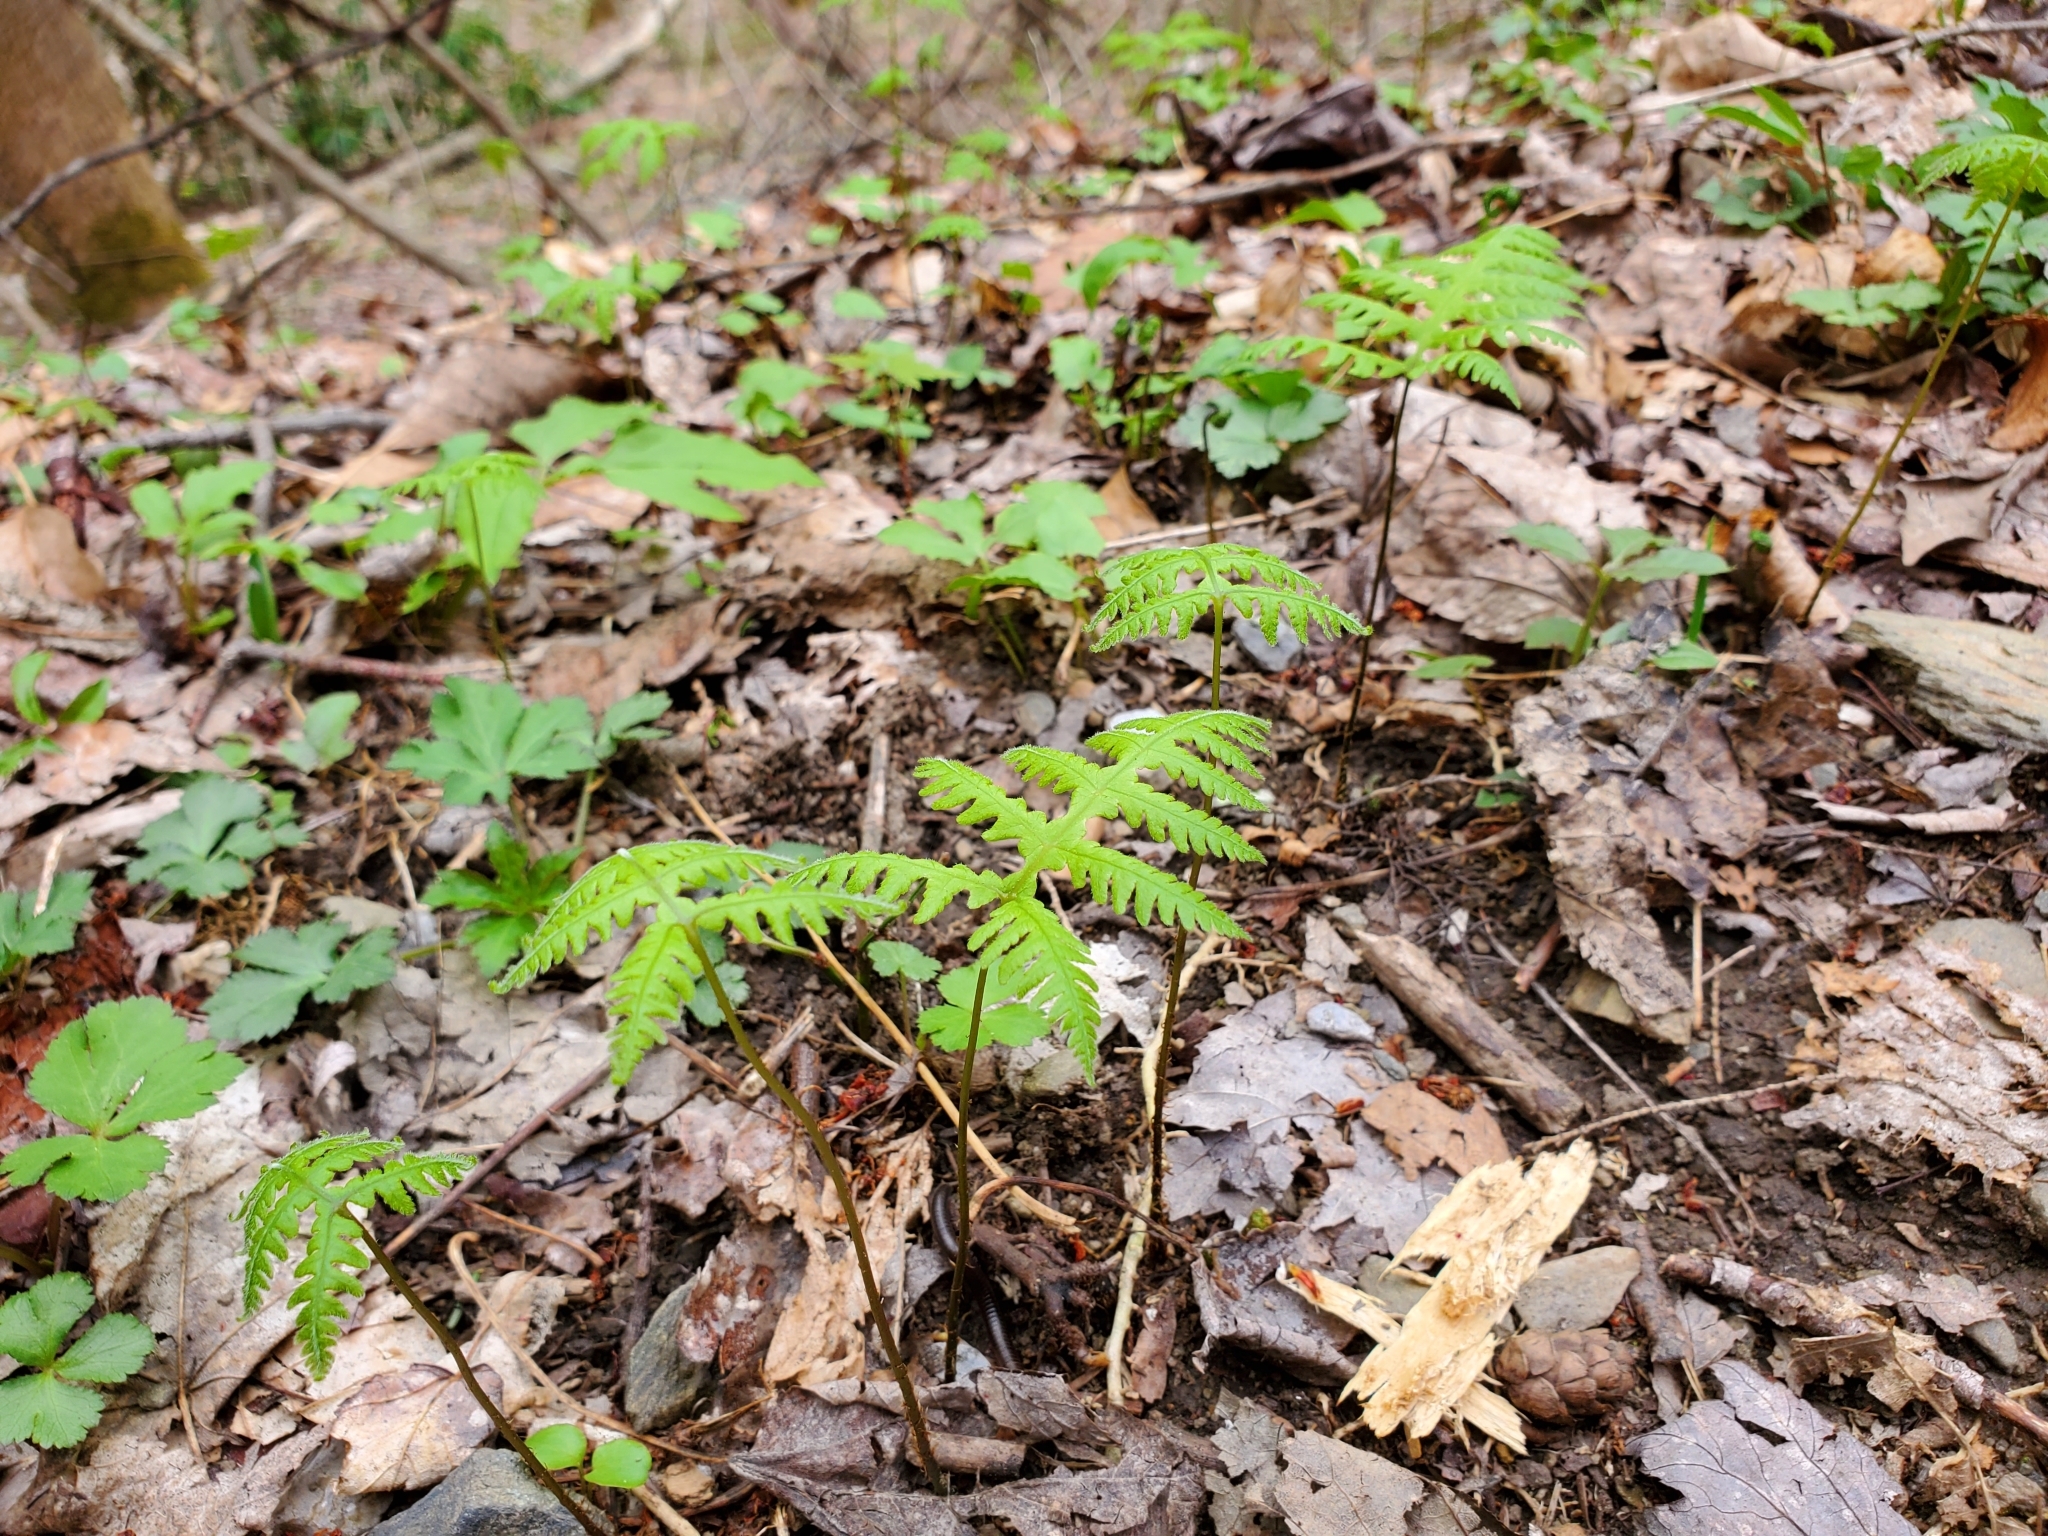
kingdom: Plantae
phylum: Tracheophyta
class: Polypodiopsida
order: Polypodiales
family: Thelypteridaceae
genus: Phegopteris
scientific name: Phegopteris hexagonoptera
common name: Broad beech fern
